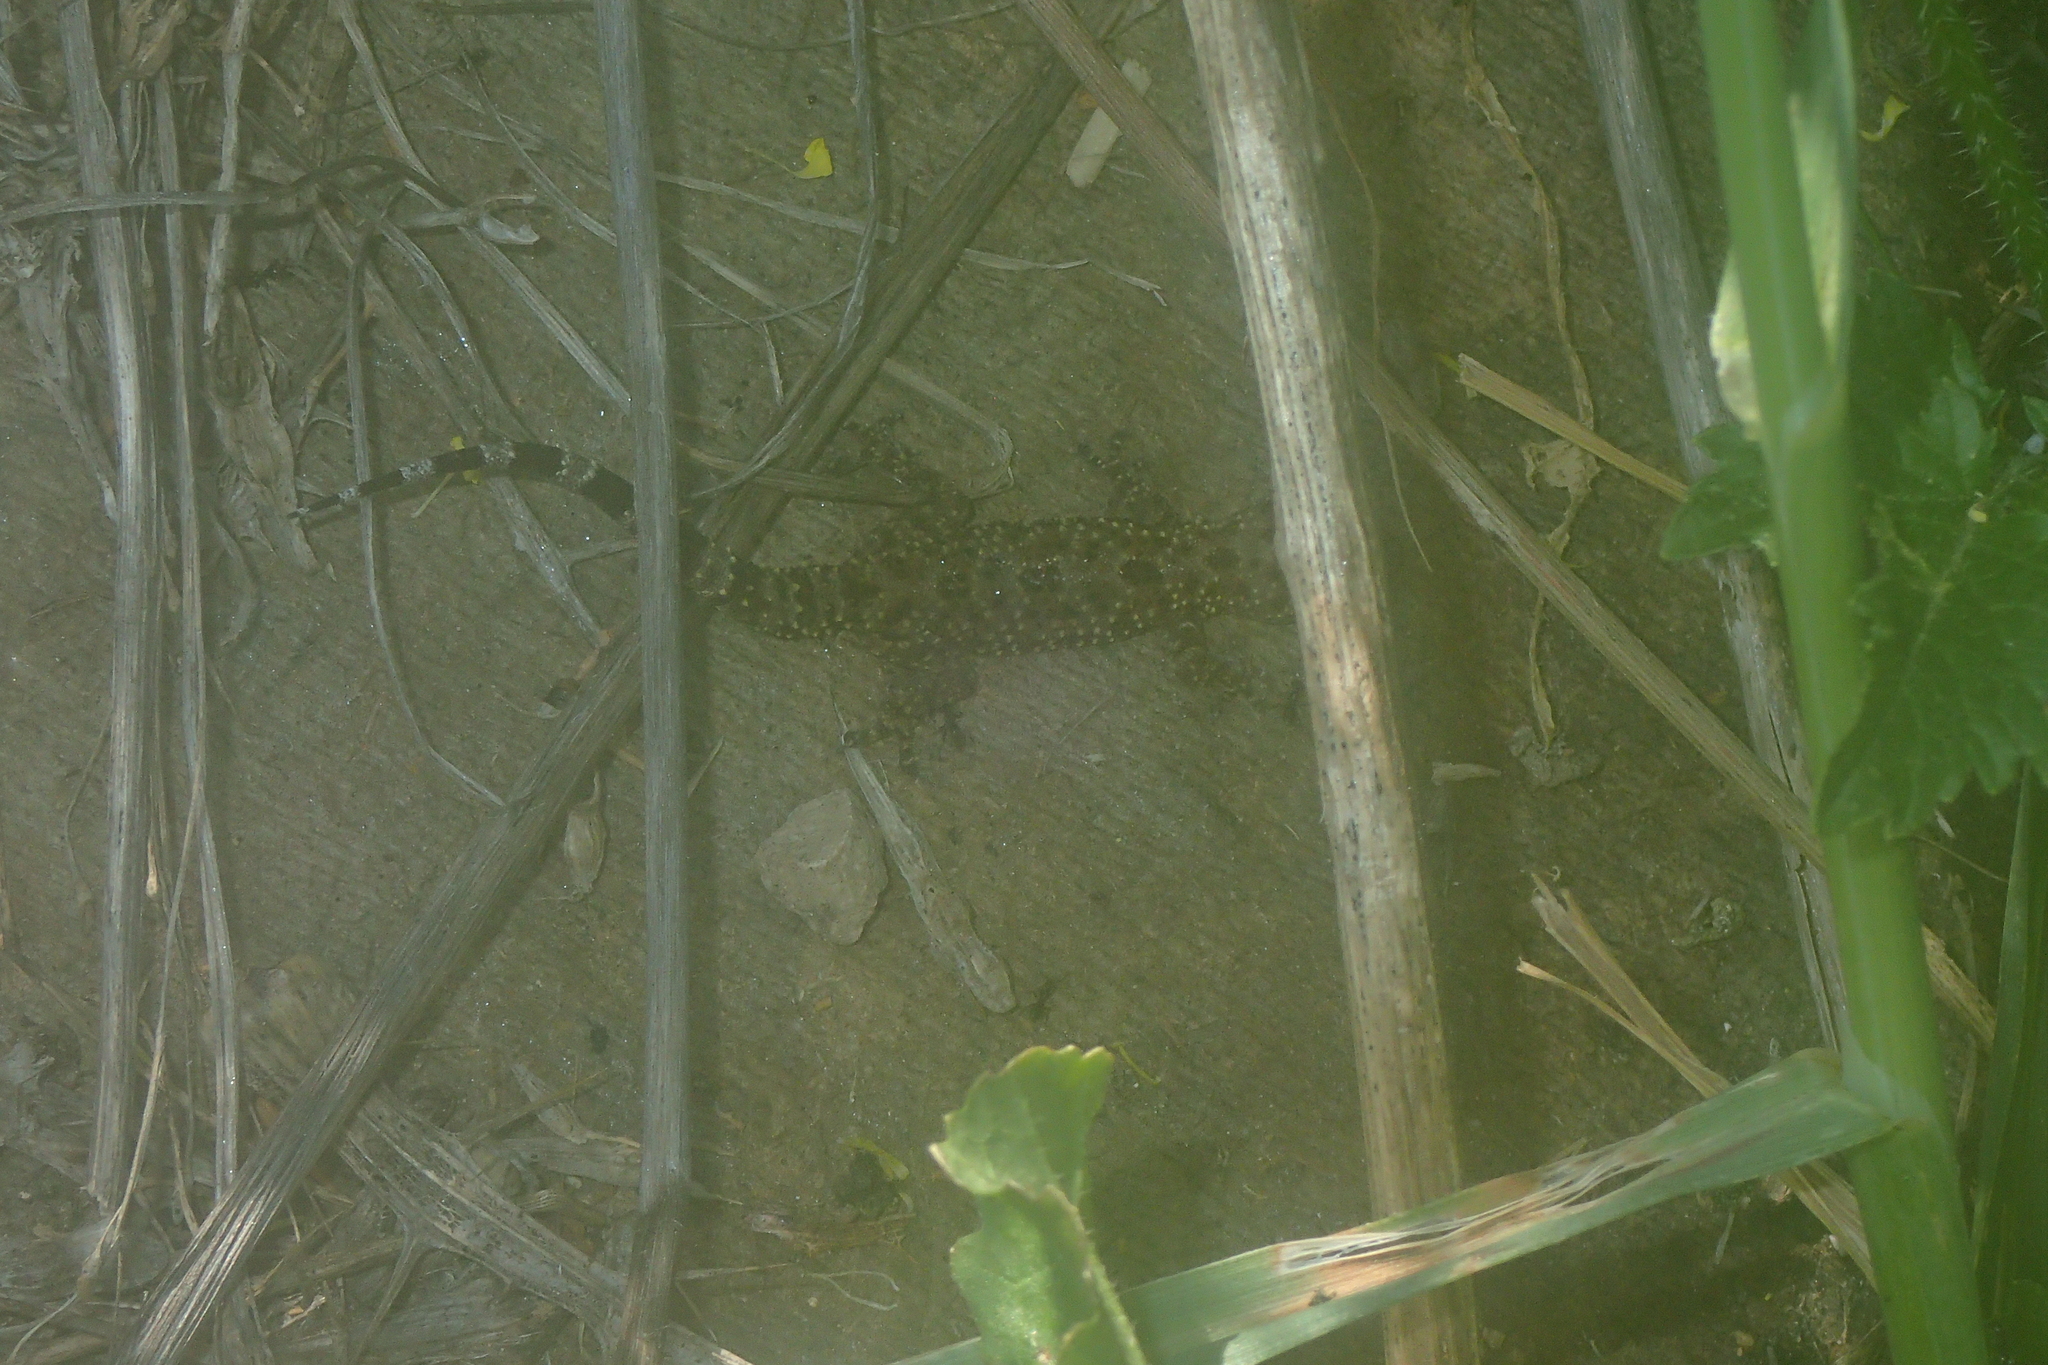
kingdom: Animalia
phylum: Chordata
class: Squamata
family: Gekkonidae
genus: Hemidactylus
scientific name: Hemidactylus turcicus
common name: Turkish gecko
